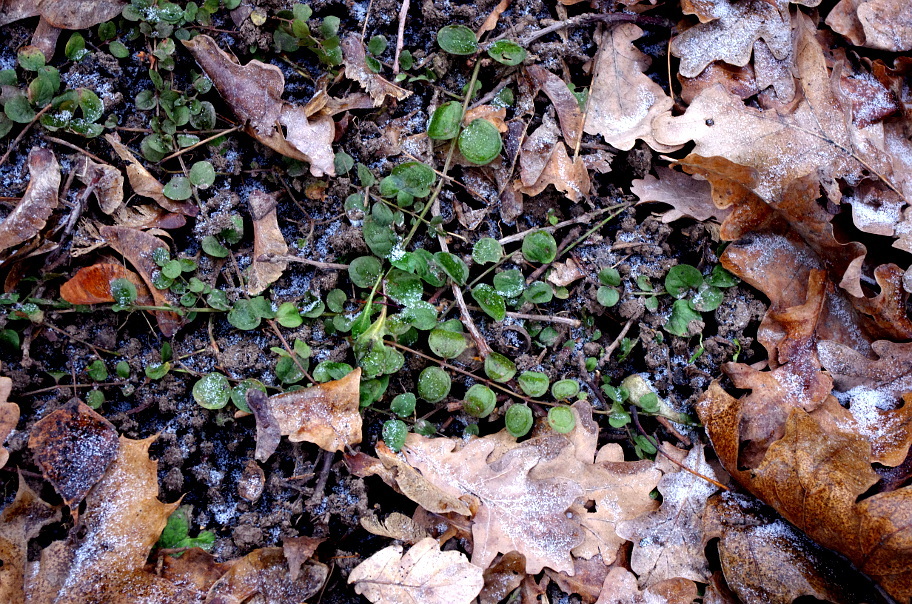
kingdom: Plantae
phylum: Tracheophyta
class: Magnoliopsida
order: Ericales
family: Primulaceae
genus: Lysimachia
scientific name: Lysimachia nummularia
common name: Moneywort
